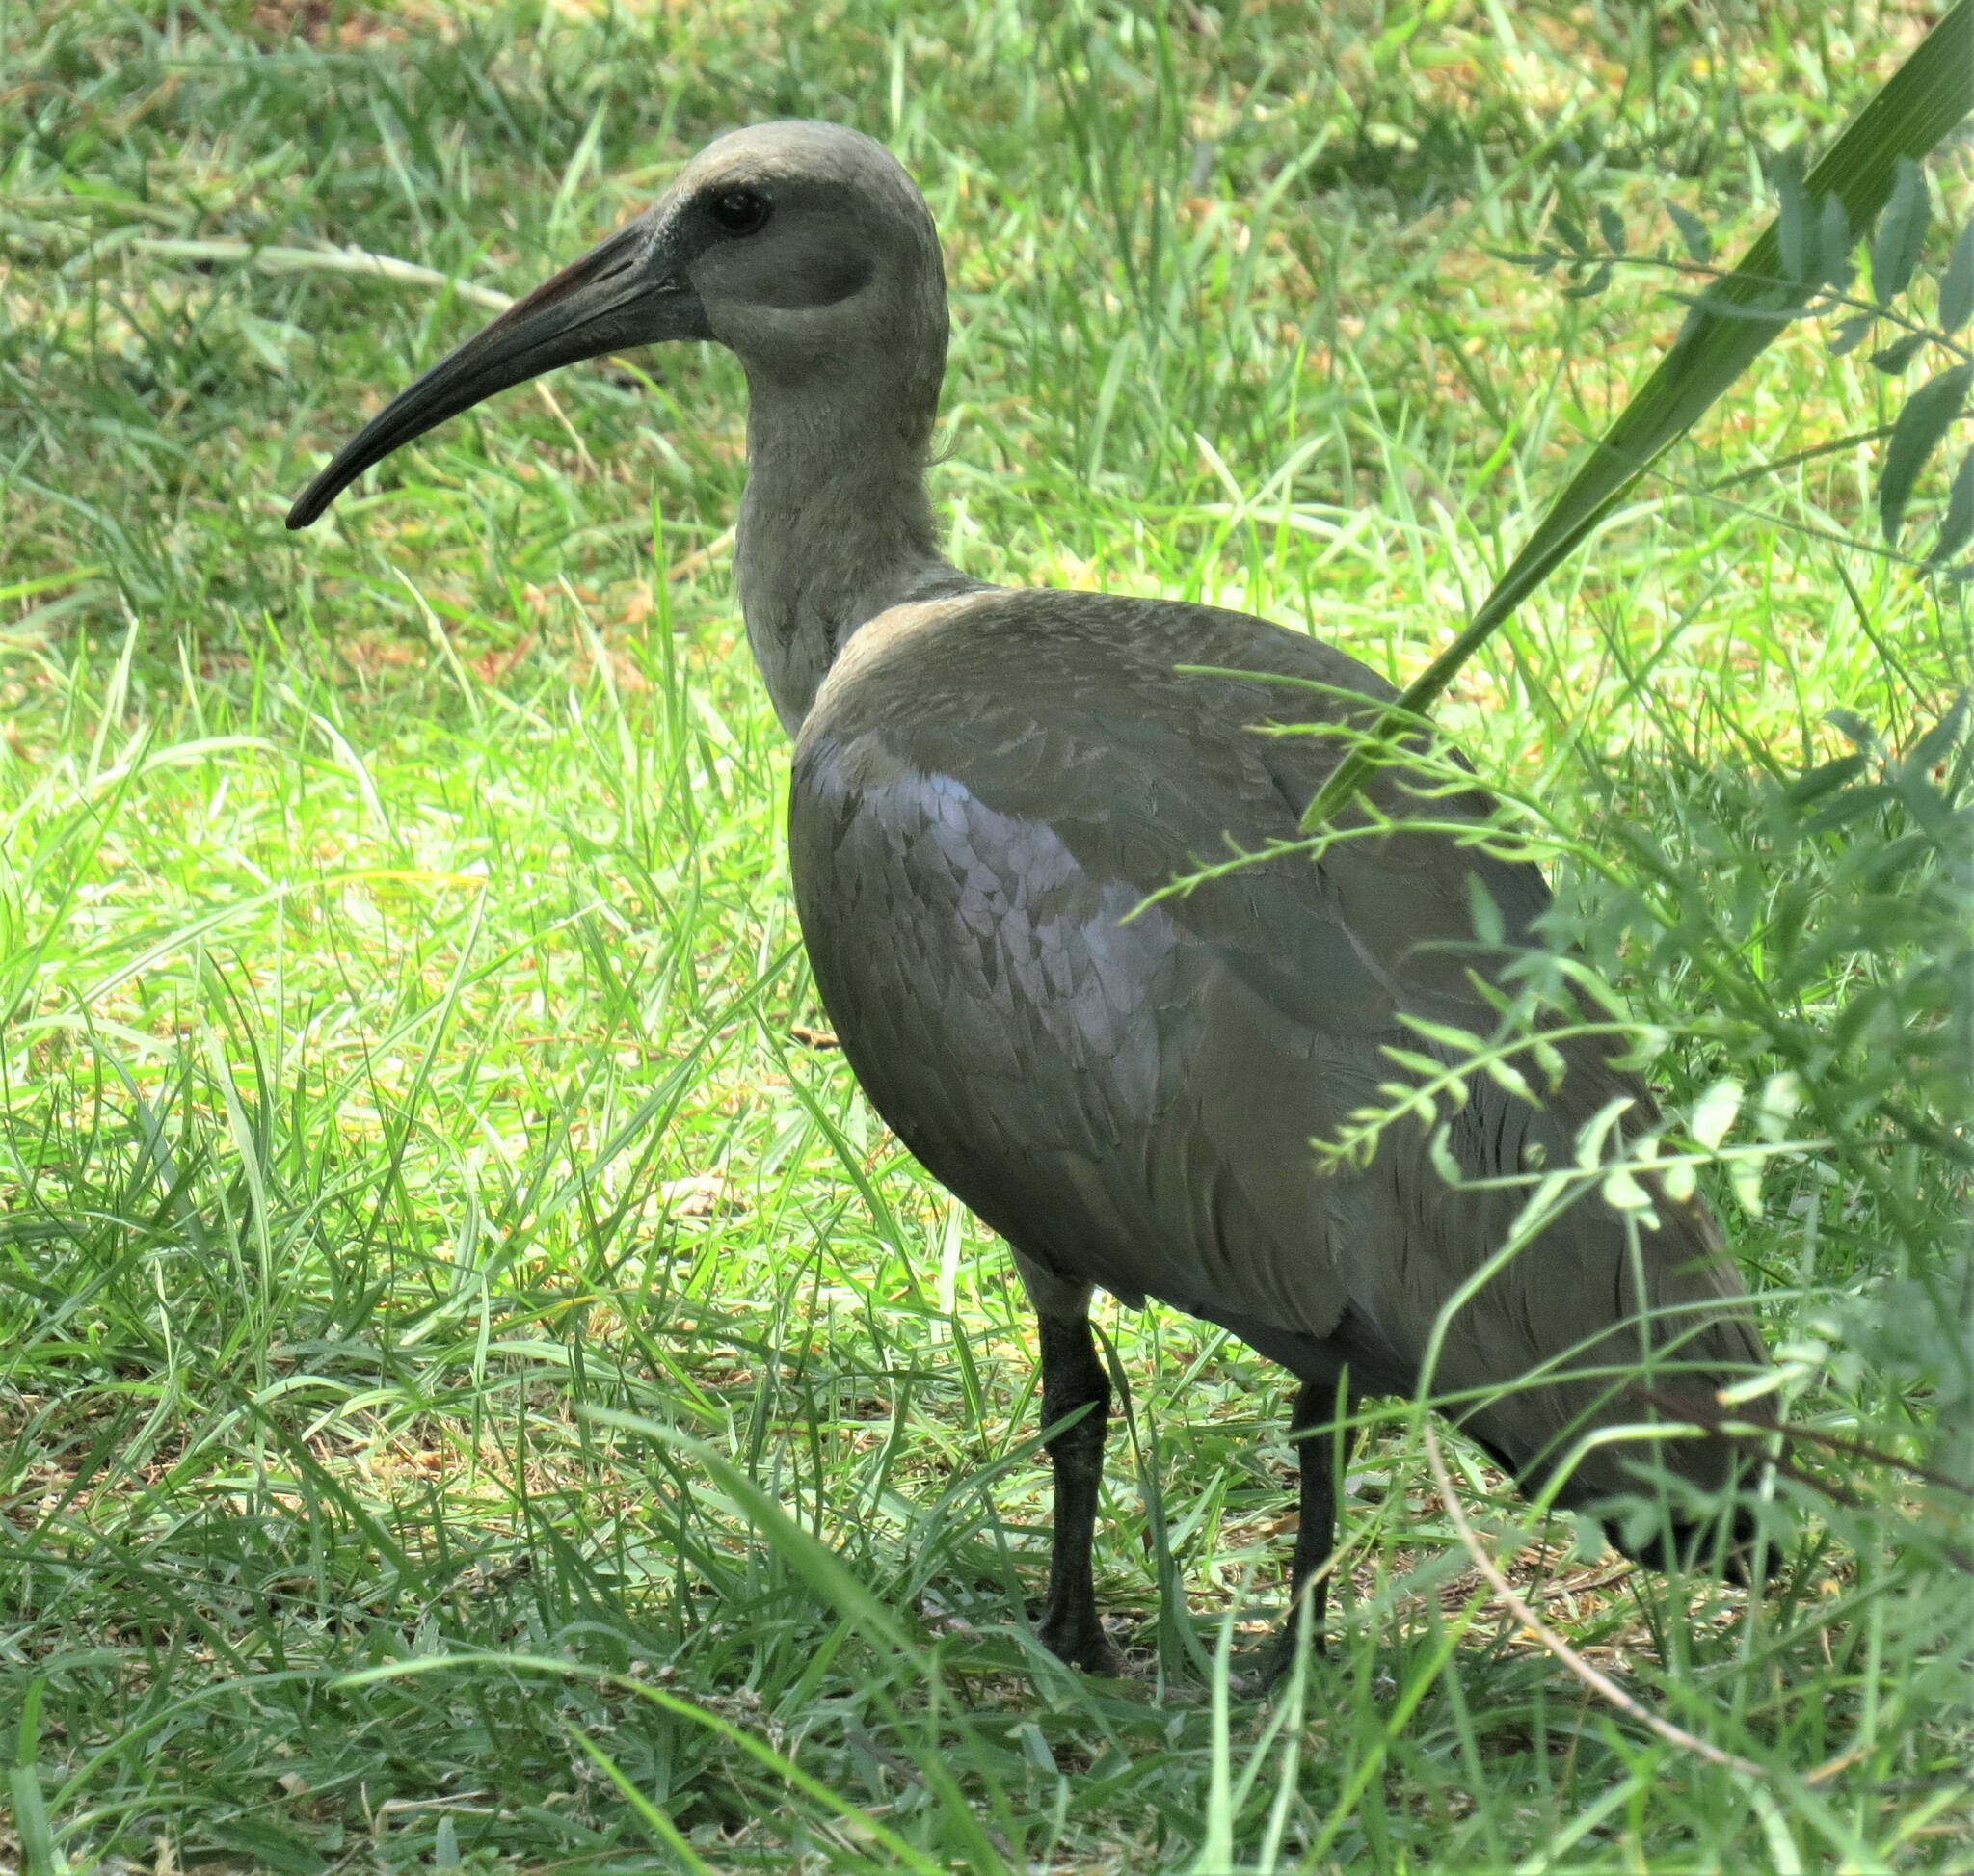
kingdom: Animalia
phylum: Chordata
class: Aves
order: Pelecaniformes
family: Threskiornithidae
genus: Bostrychia
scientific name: Bostrychia hagedash
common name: Hadada ibis
